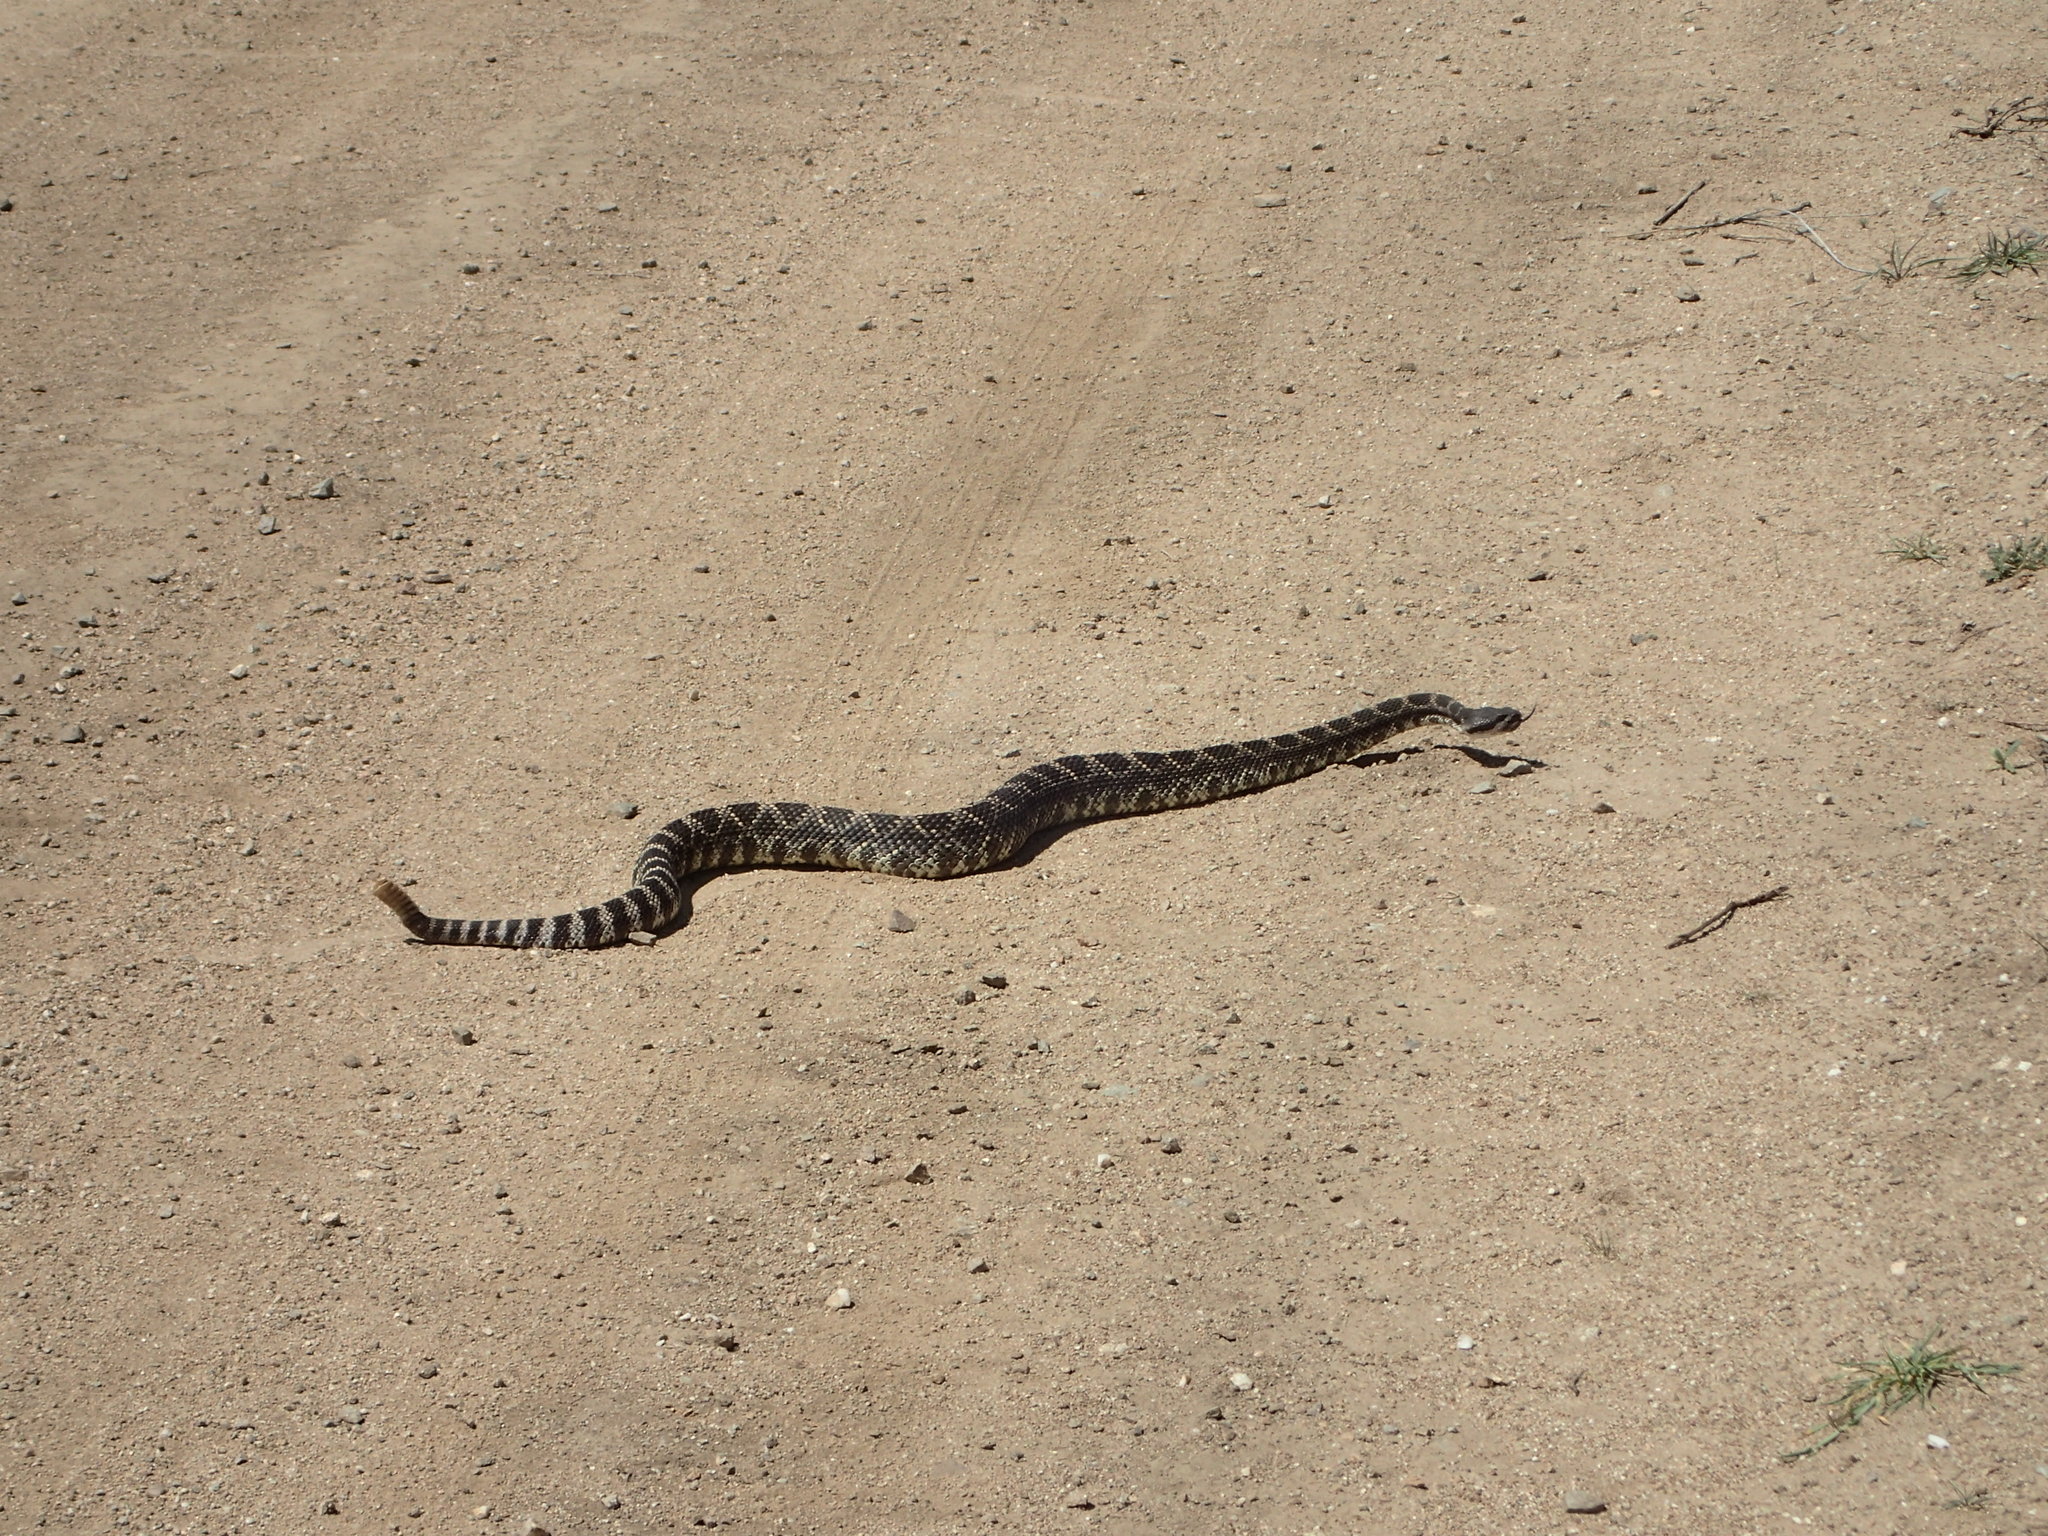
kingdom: Animalia
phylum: Chordata
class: Squamata
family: Viperidae
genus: Crotalus
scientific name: Crotalus oreganus
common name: Abyssus
